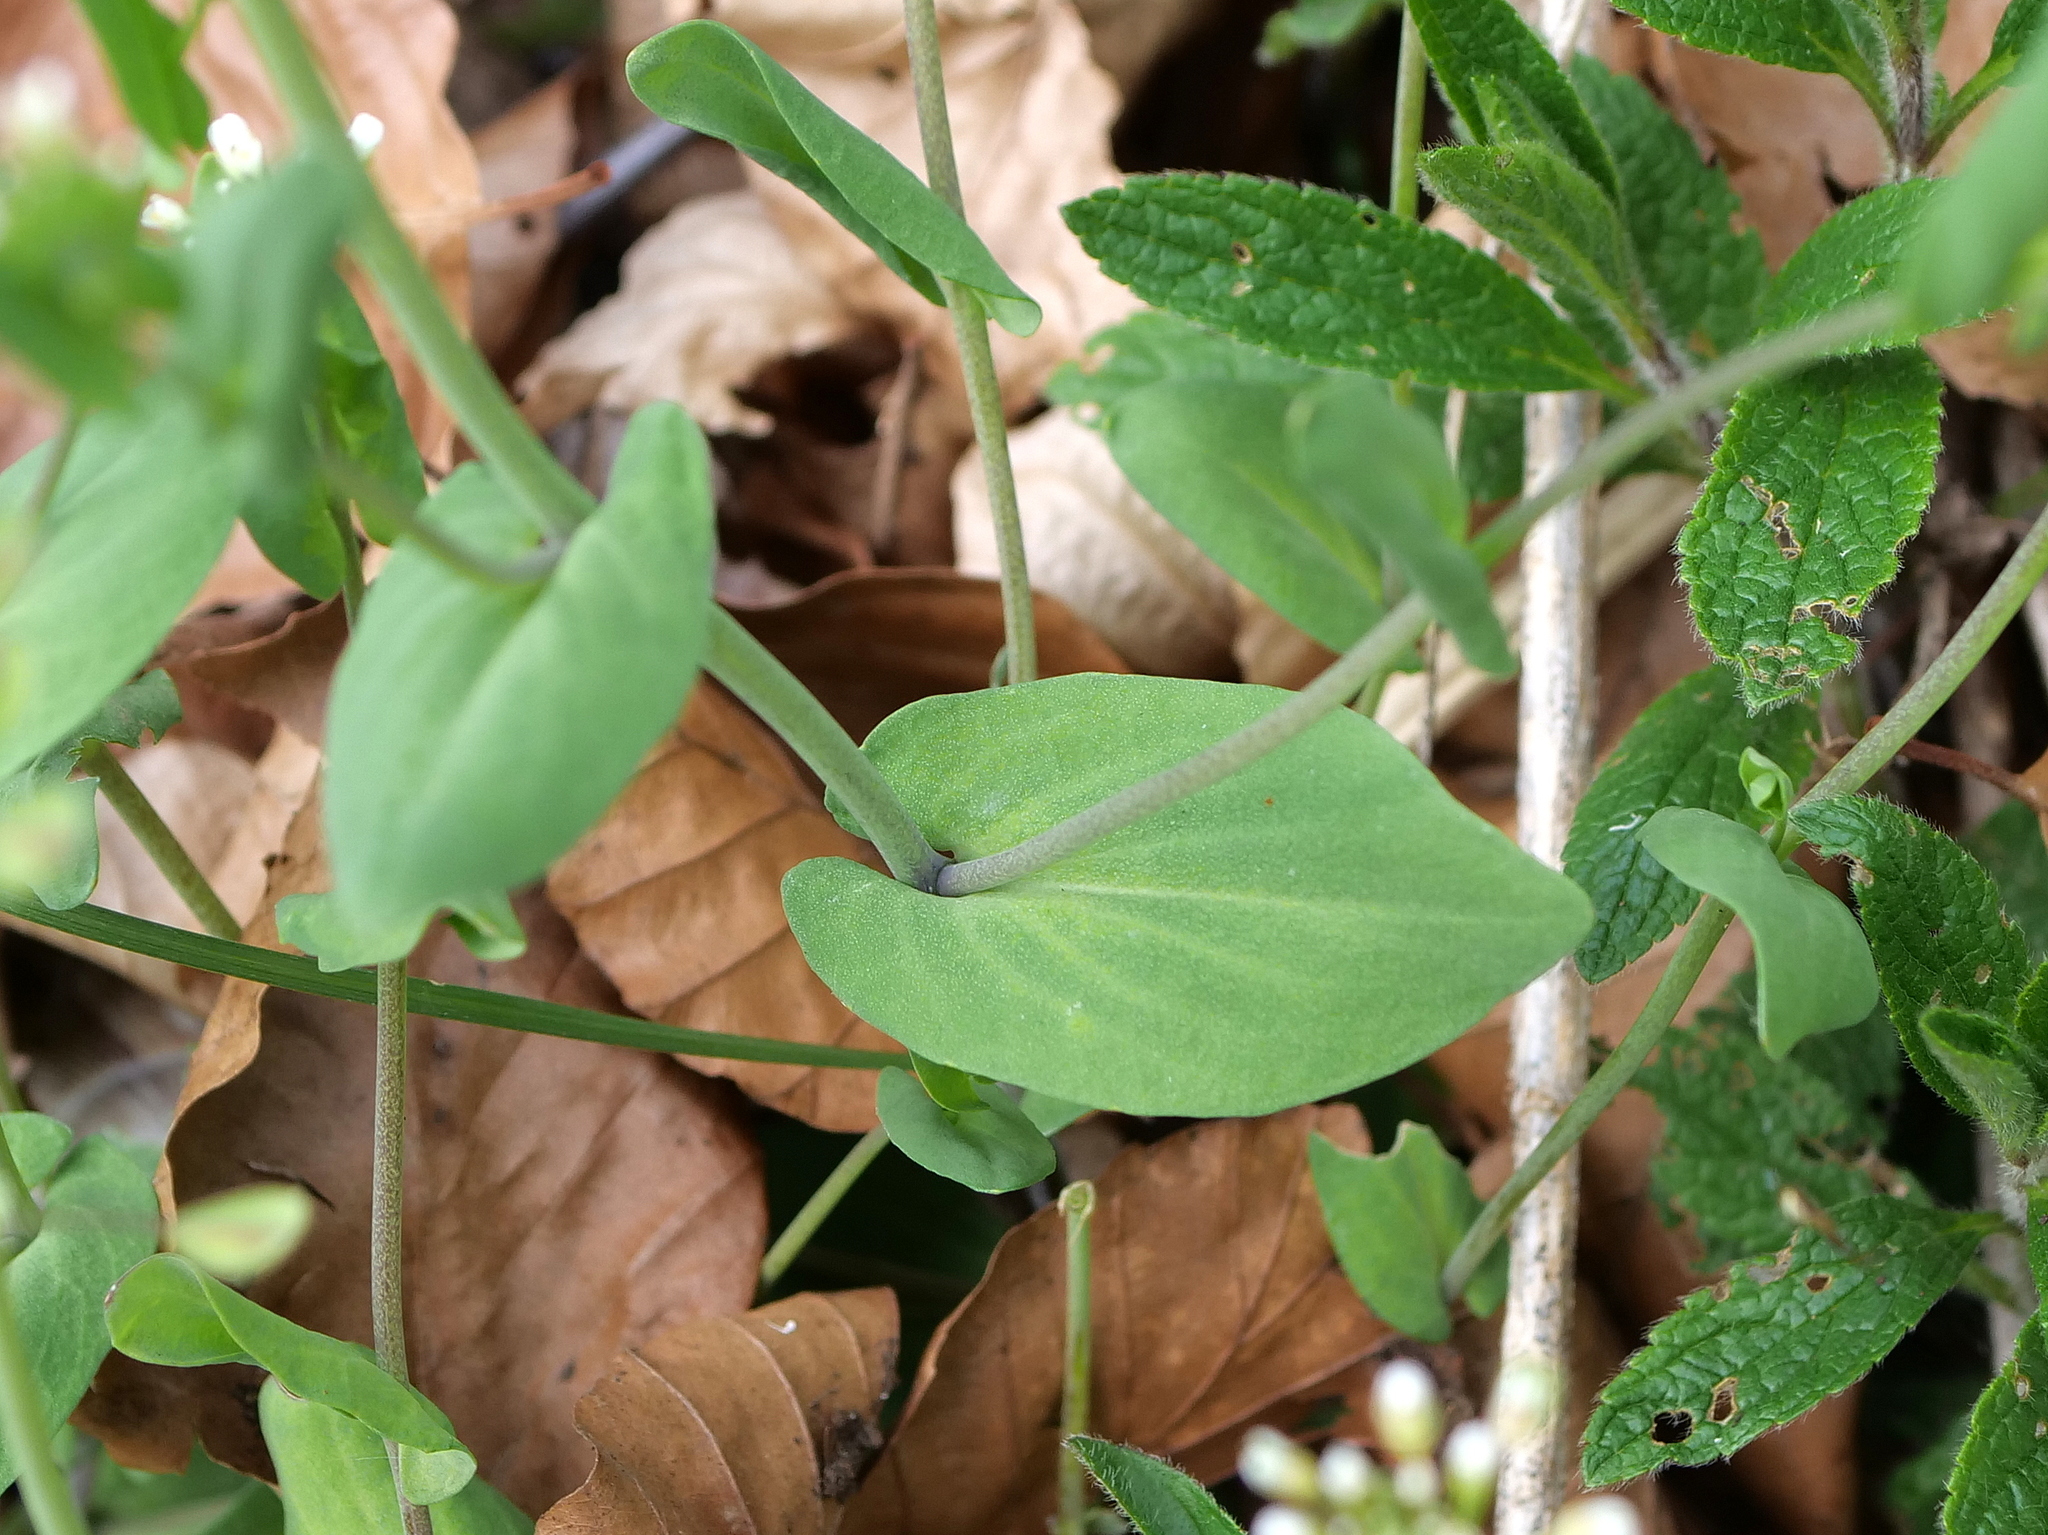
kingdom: Plantae
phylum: Tracheophyta
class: Magnoliopsida
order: Brassicales
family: Brassicaceae
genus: Noccaea
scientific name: Noccaea perfoliata
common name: Perfoliate pennycress
